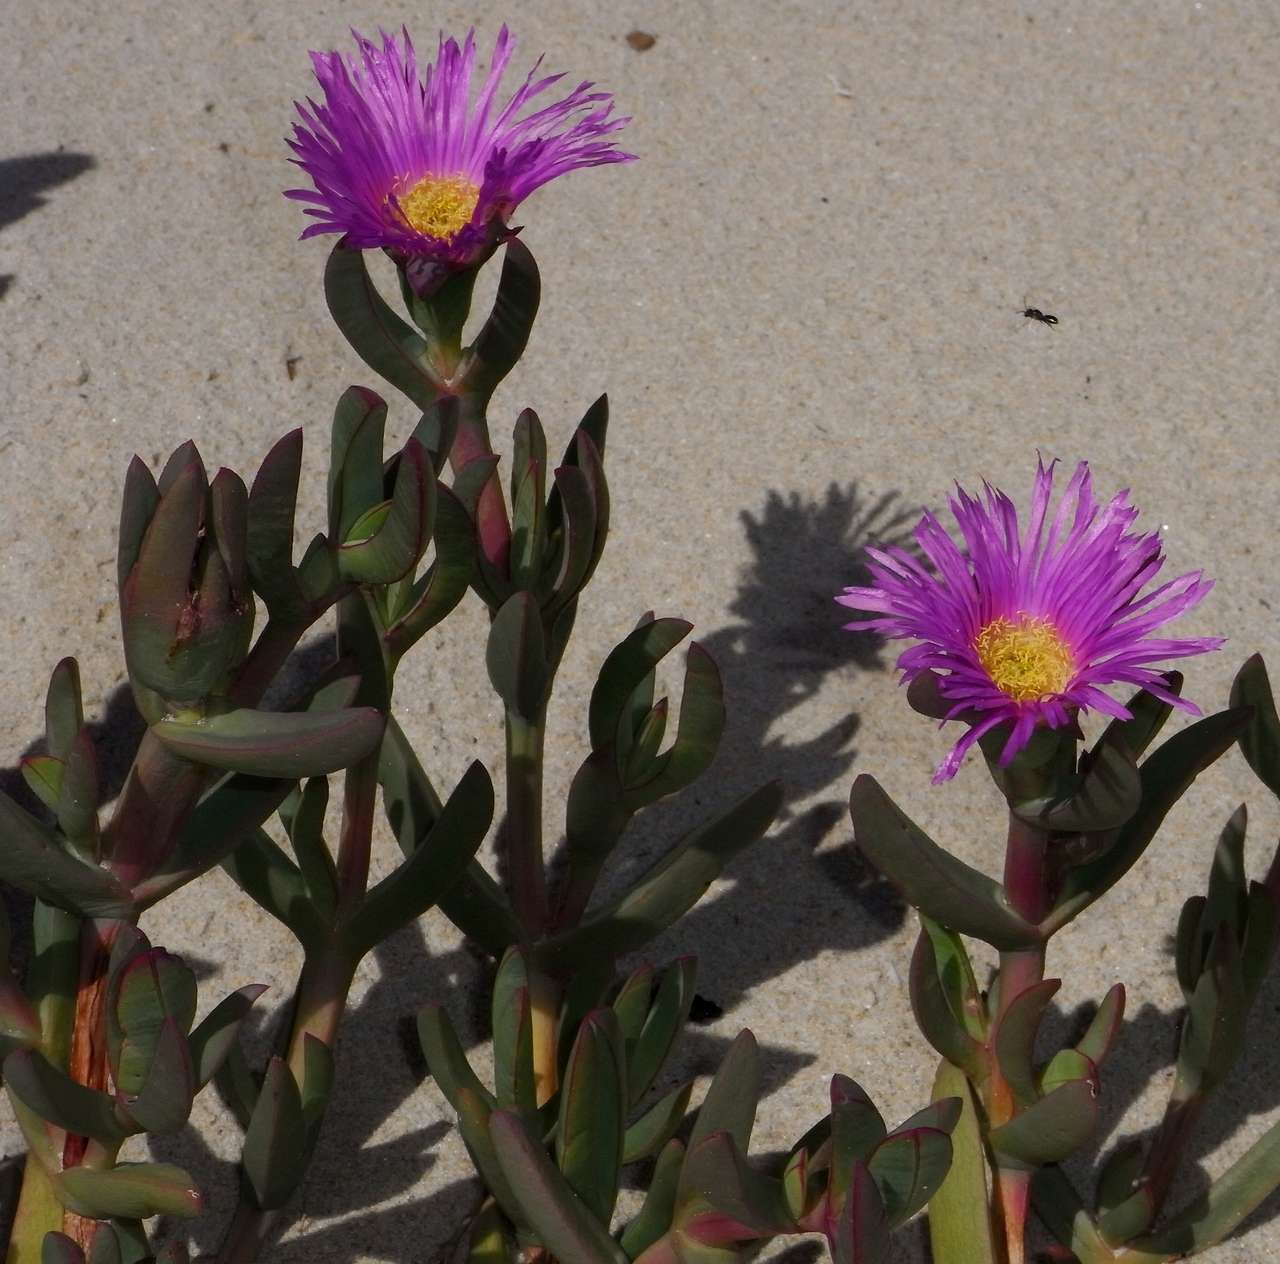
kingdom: Plantae
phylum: Tracheophyta
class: Magnoliopsida
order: Caryophyllales
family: Aizoaceae
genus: Carpobrotus
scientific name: Carpobrotus glaucescens
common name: Angular sea-fig
